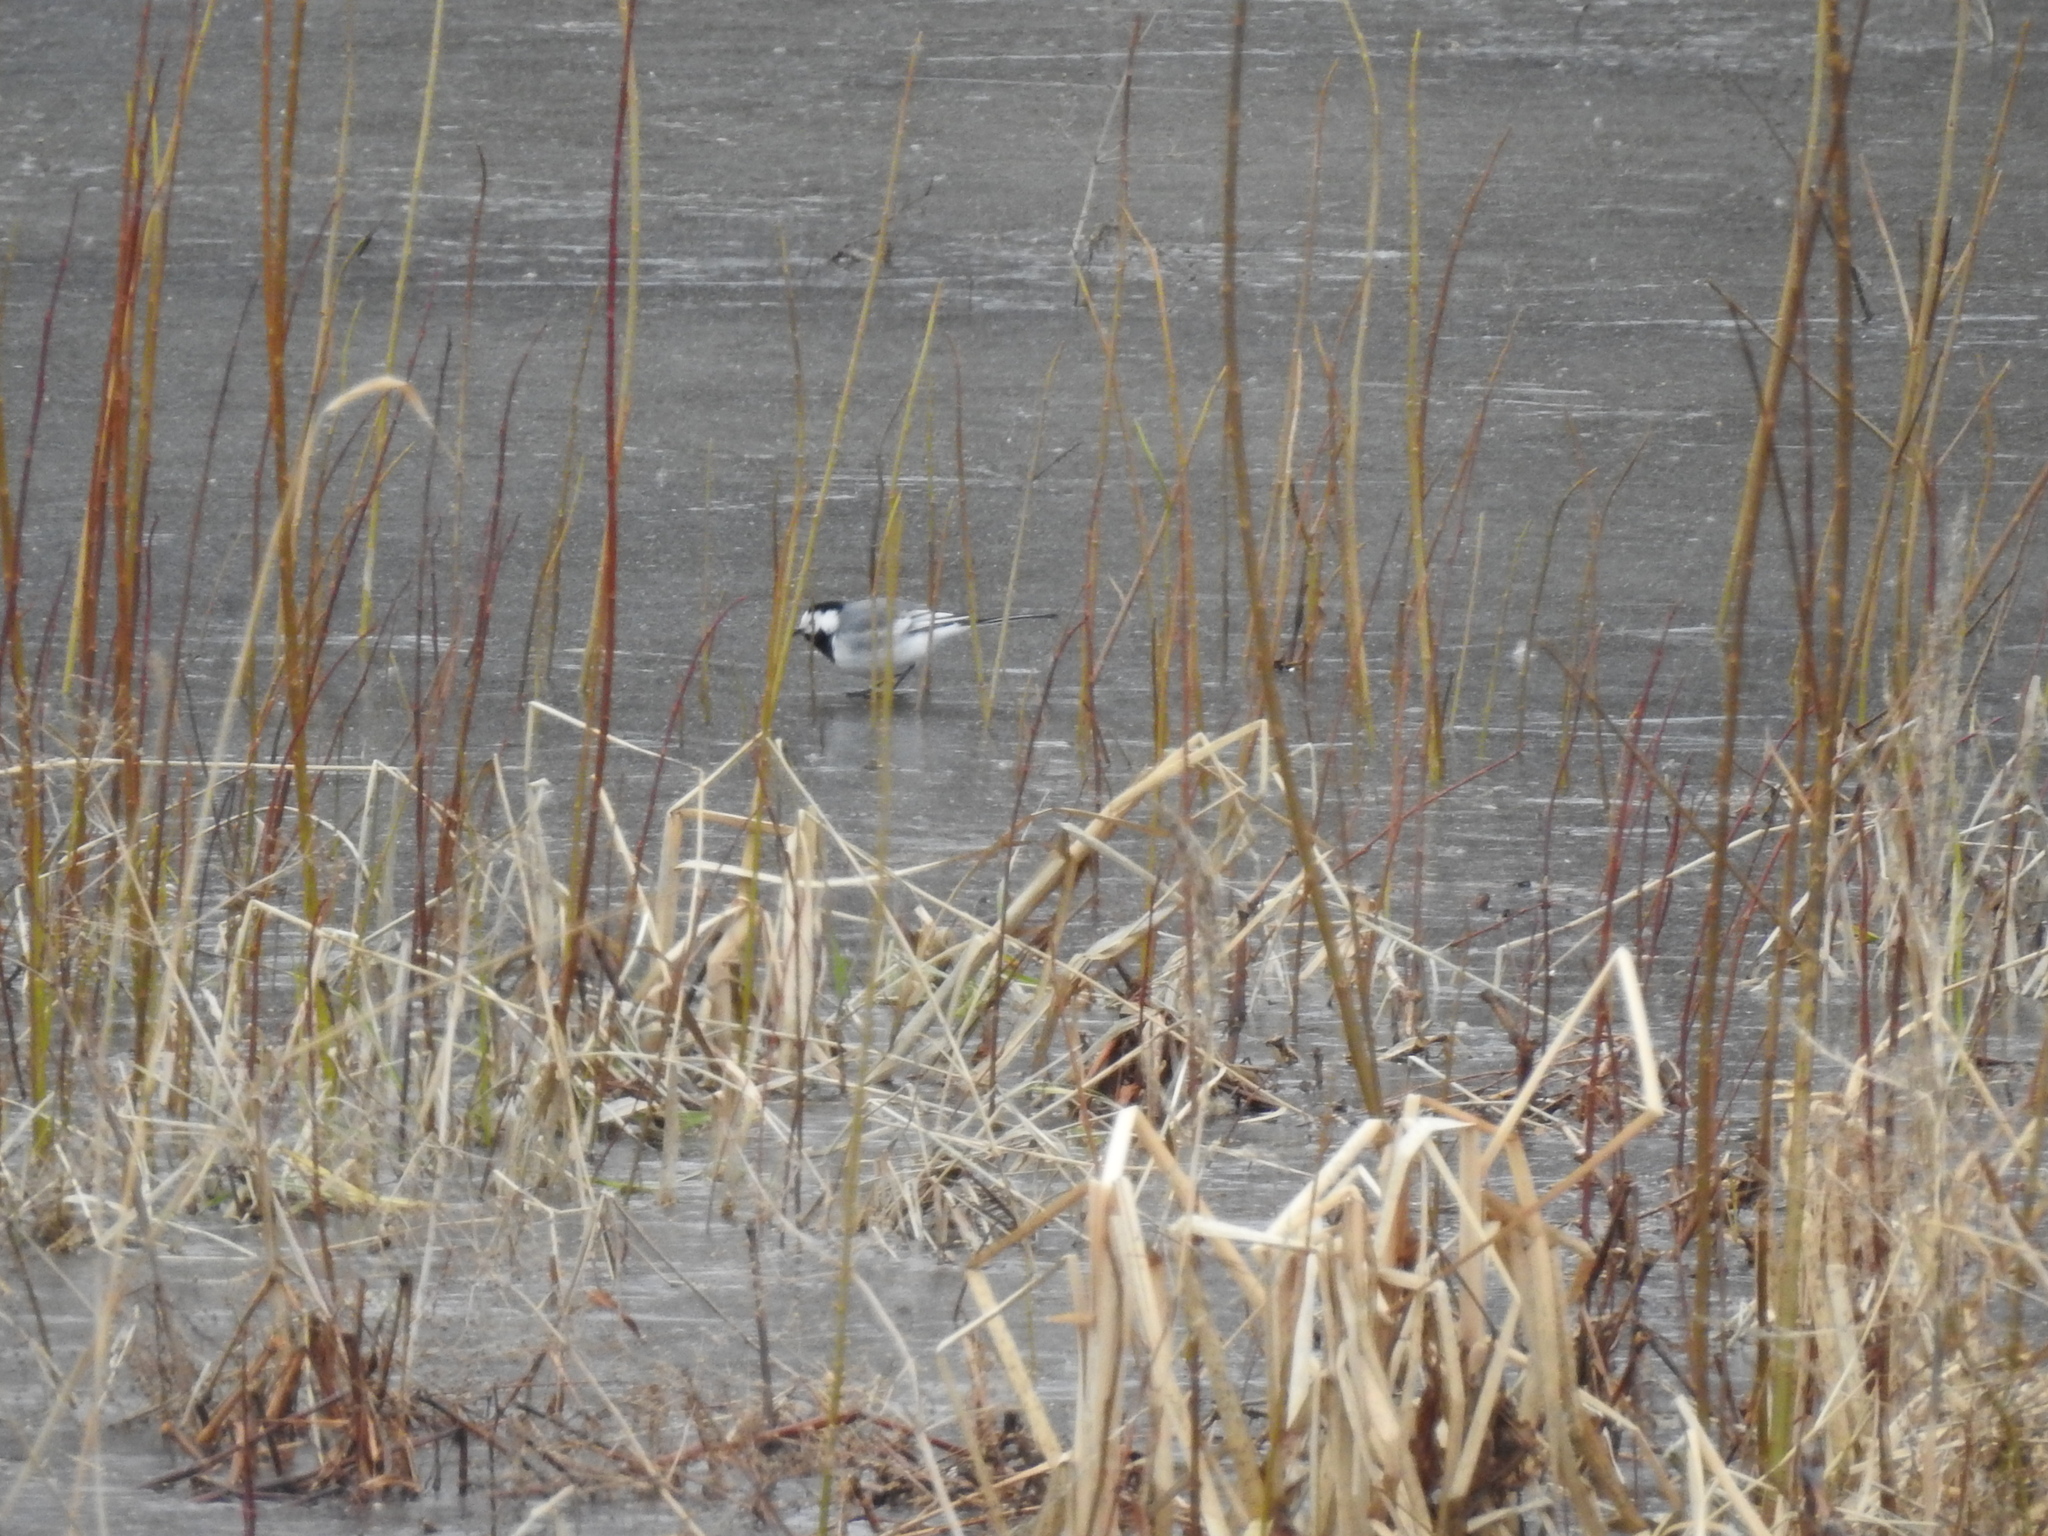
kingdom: Animalia
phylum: Chordata
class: Aves
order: Passeriformes
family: Motacillidae
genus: Motacilla
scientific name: Motacilla alba
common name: White wagtail
